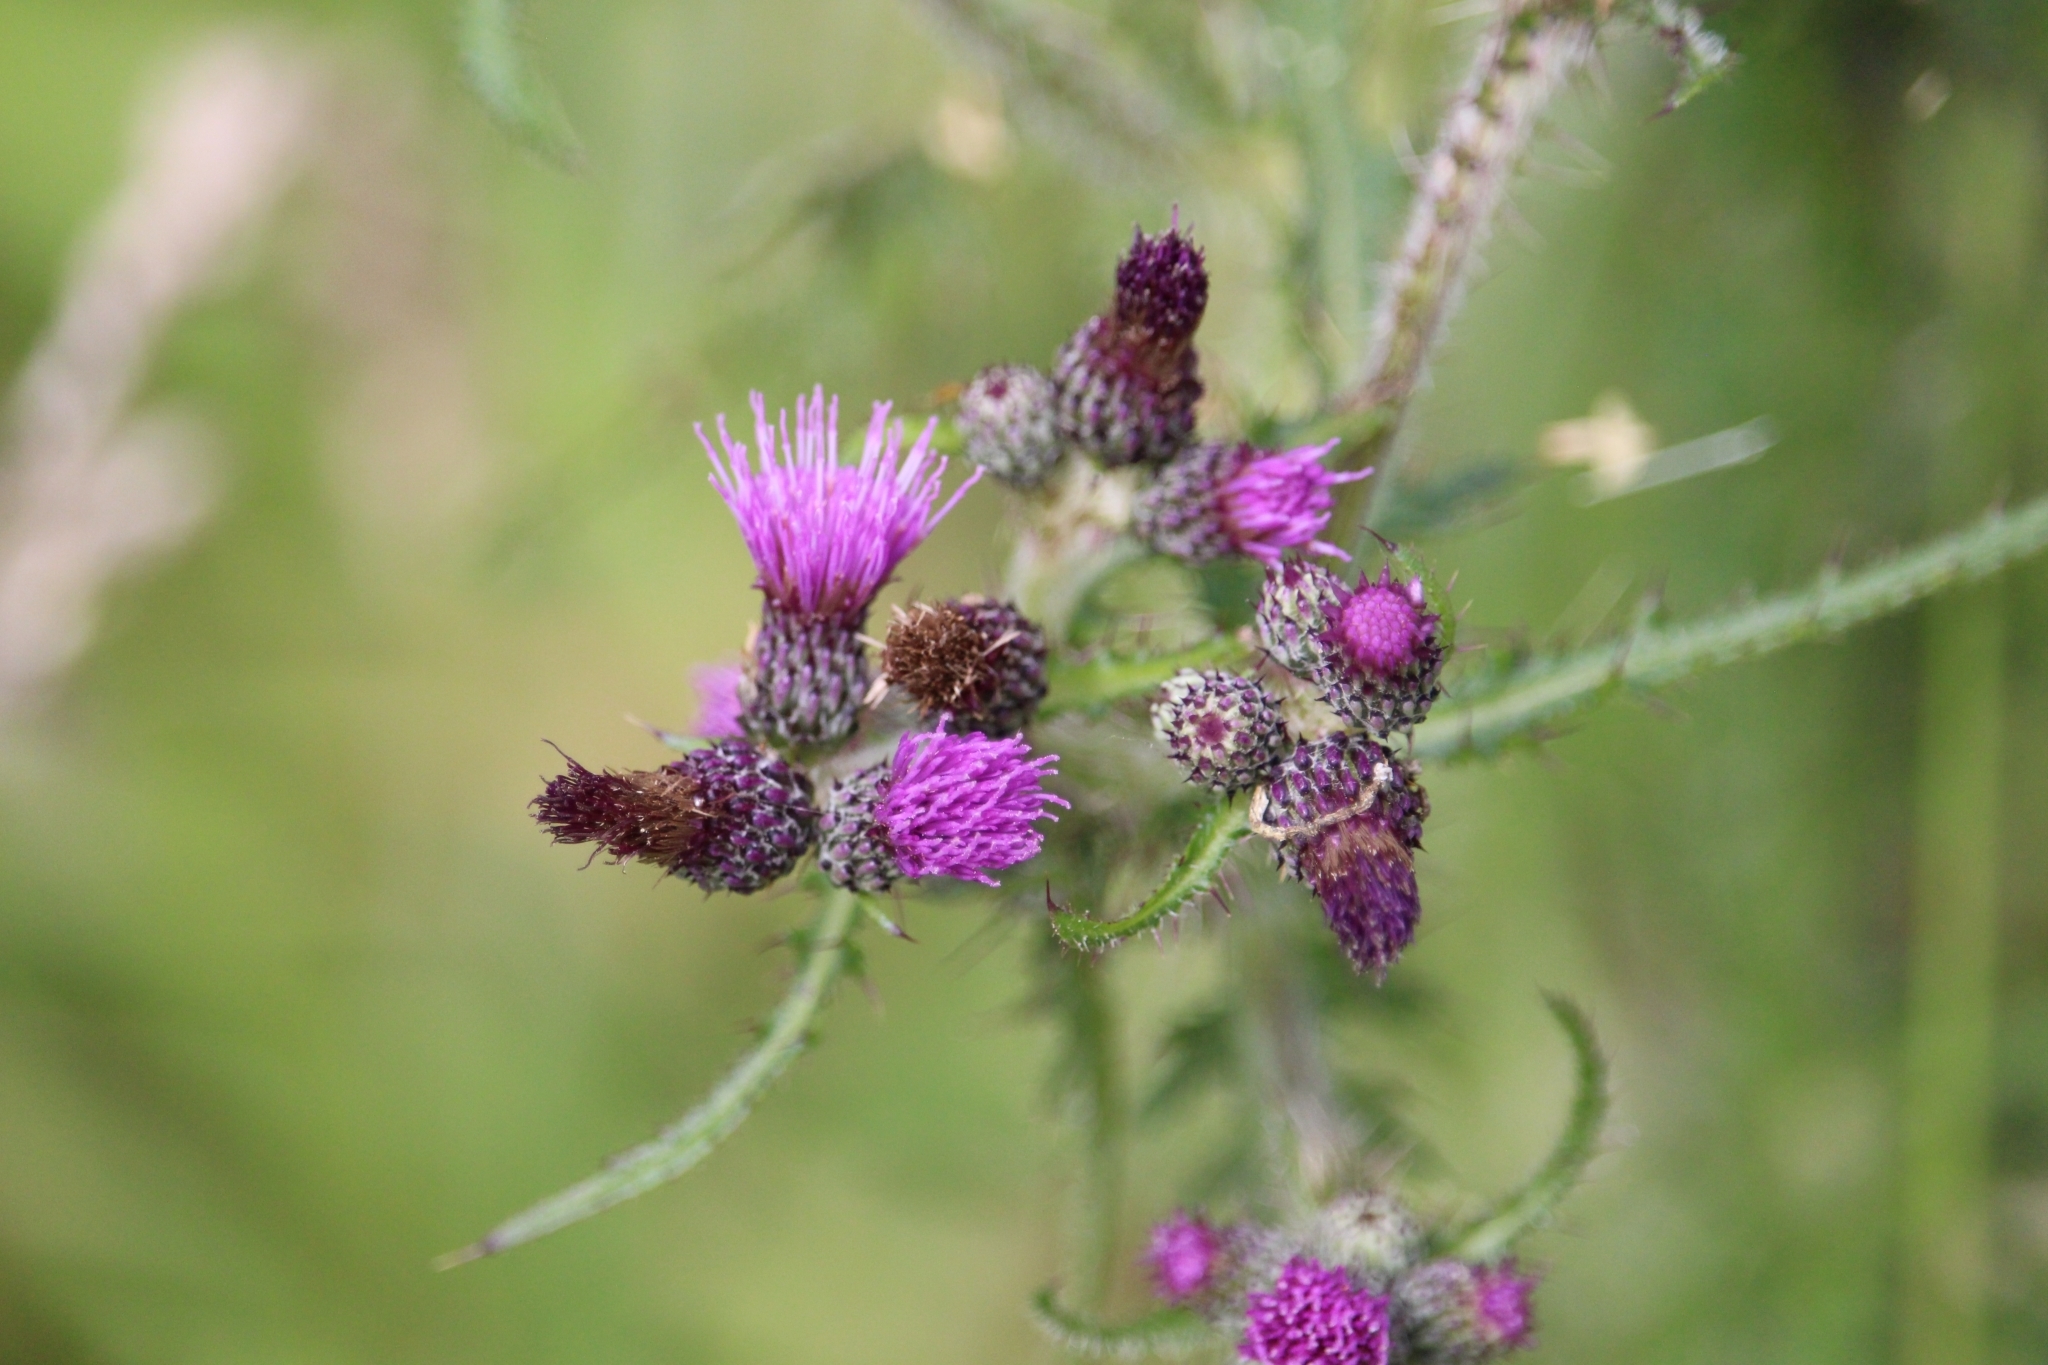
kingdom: Plantae
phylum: Tracheophyta
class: Magnoliopsida
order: Asterales
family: Asteraceae
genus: Cirsium
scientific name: Cirsium arvense
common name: Creeping thistle
